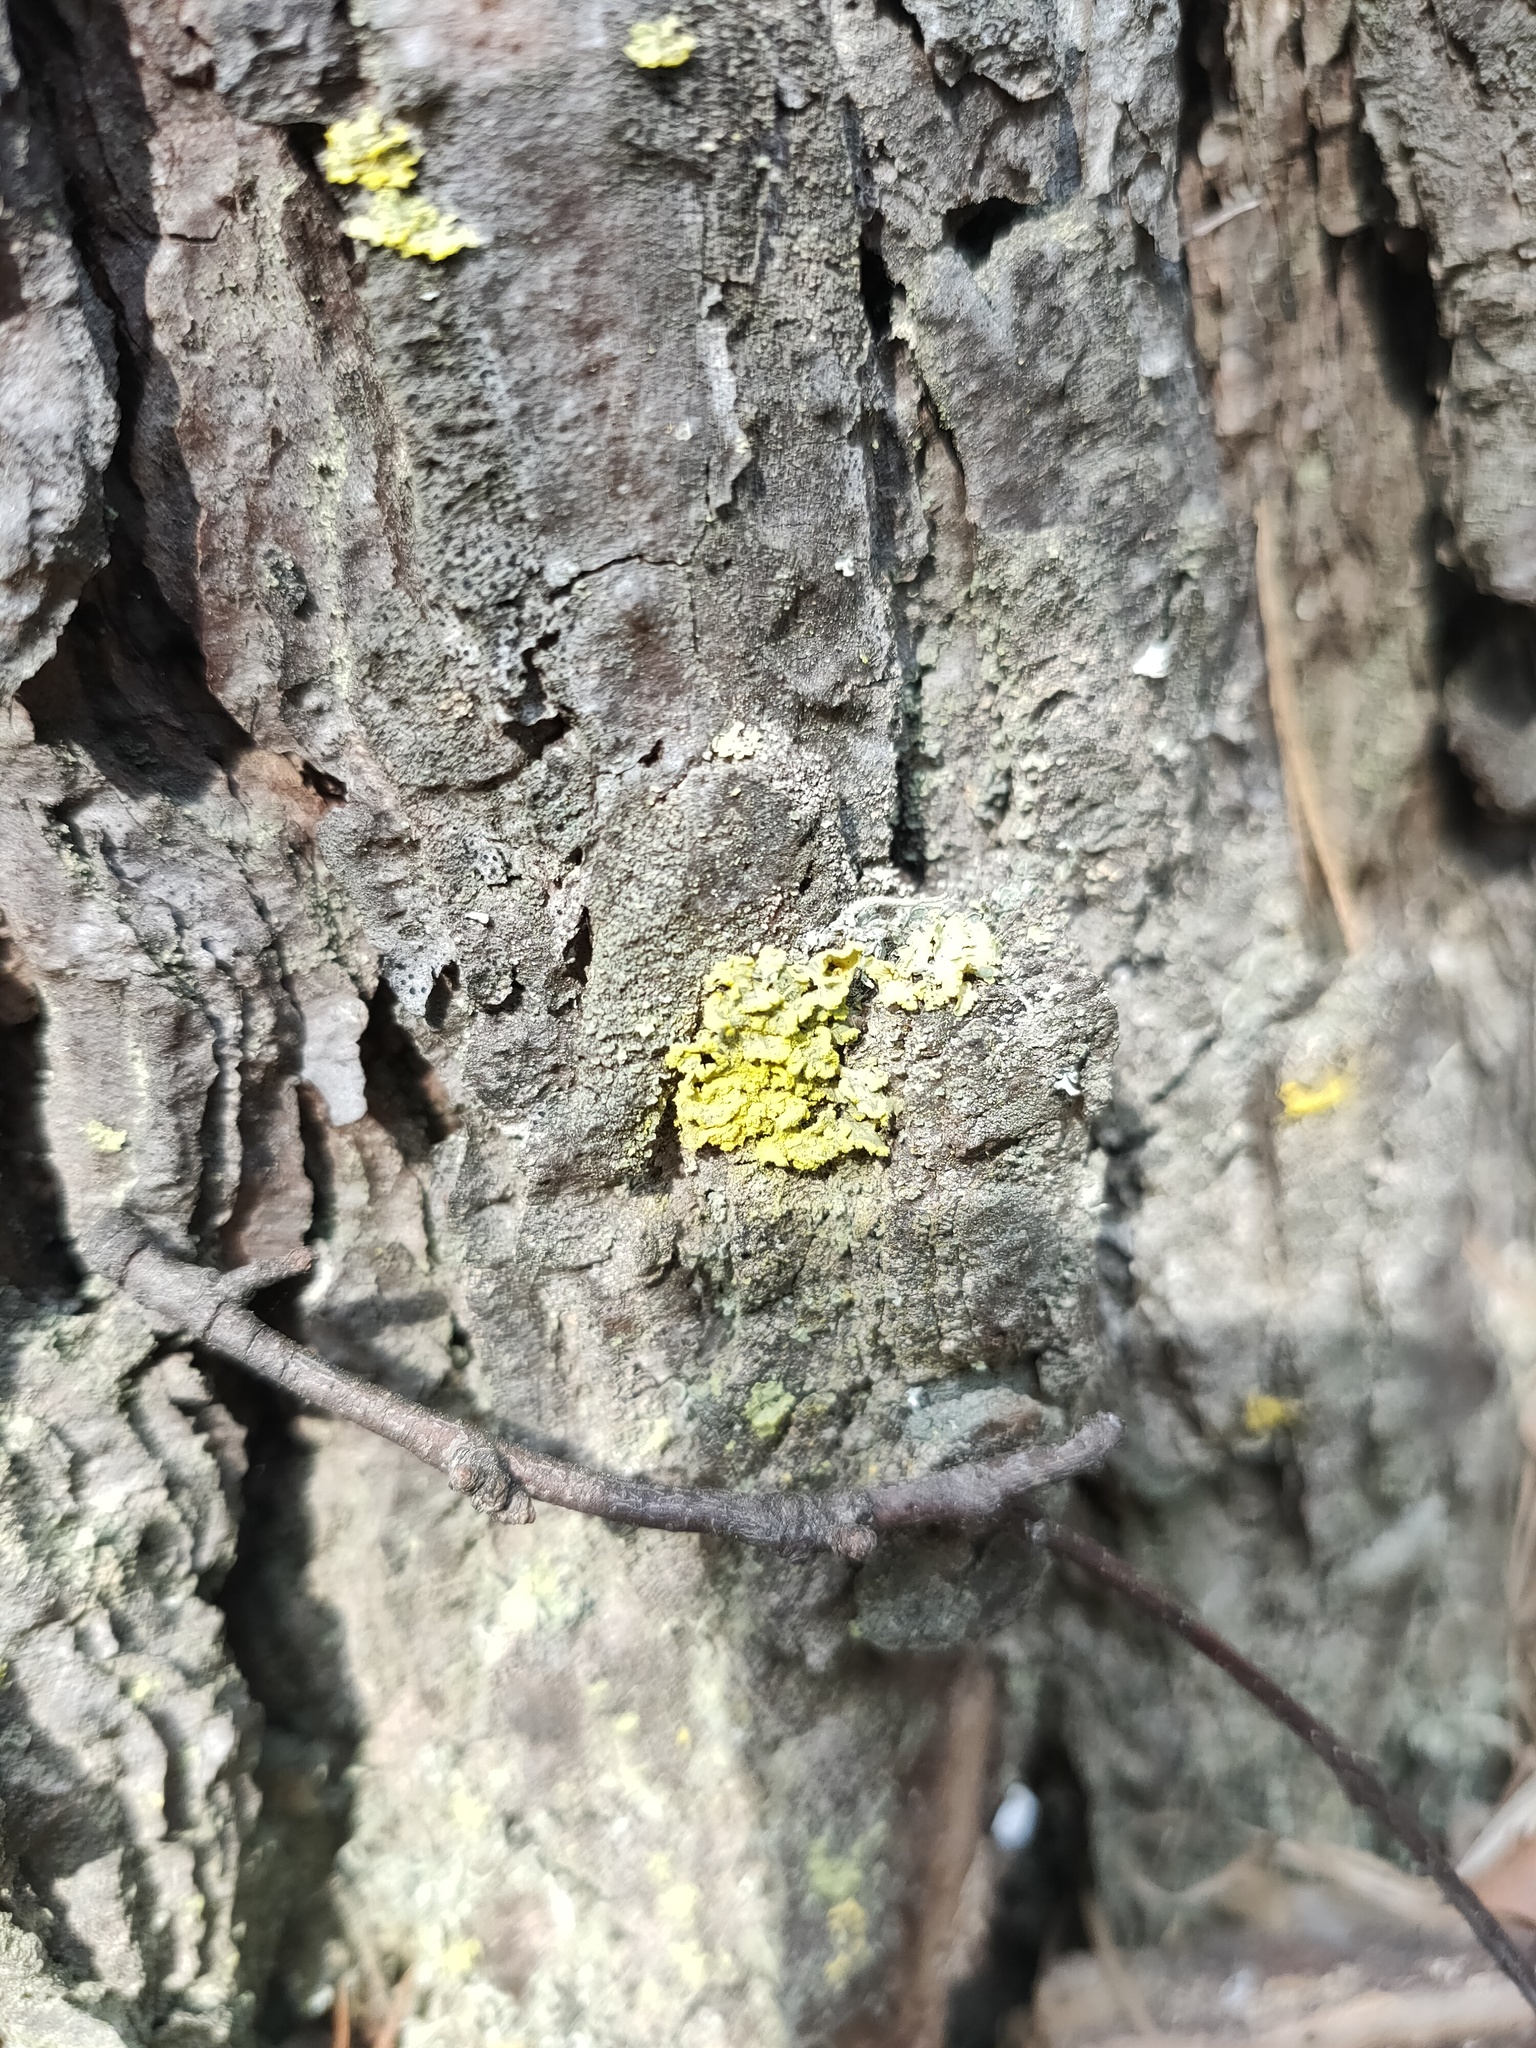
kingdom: Fungi
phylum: Ascomycota
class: Lecanoromycetes
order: Lecanorales
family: Parmeliaceae
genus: Vulpicida
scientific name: Vulpicida pinastri
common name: Powdered sunshine lichen
